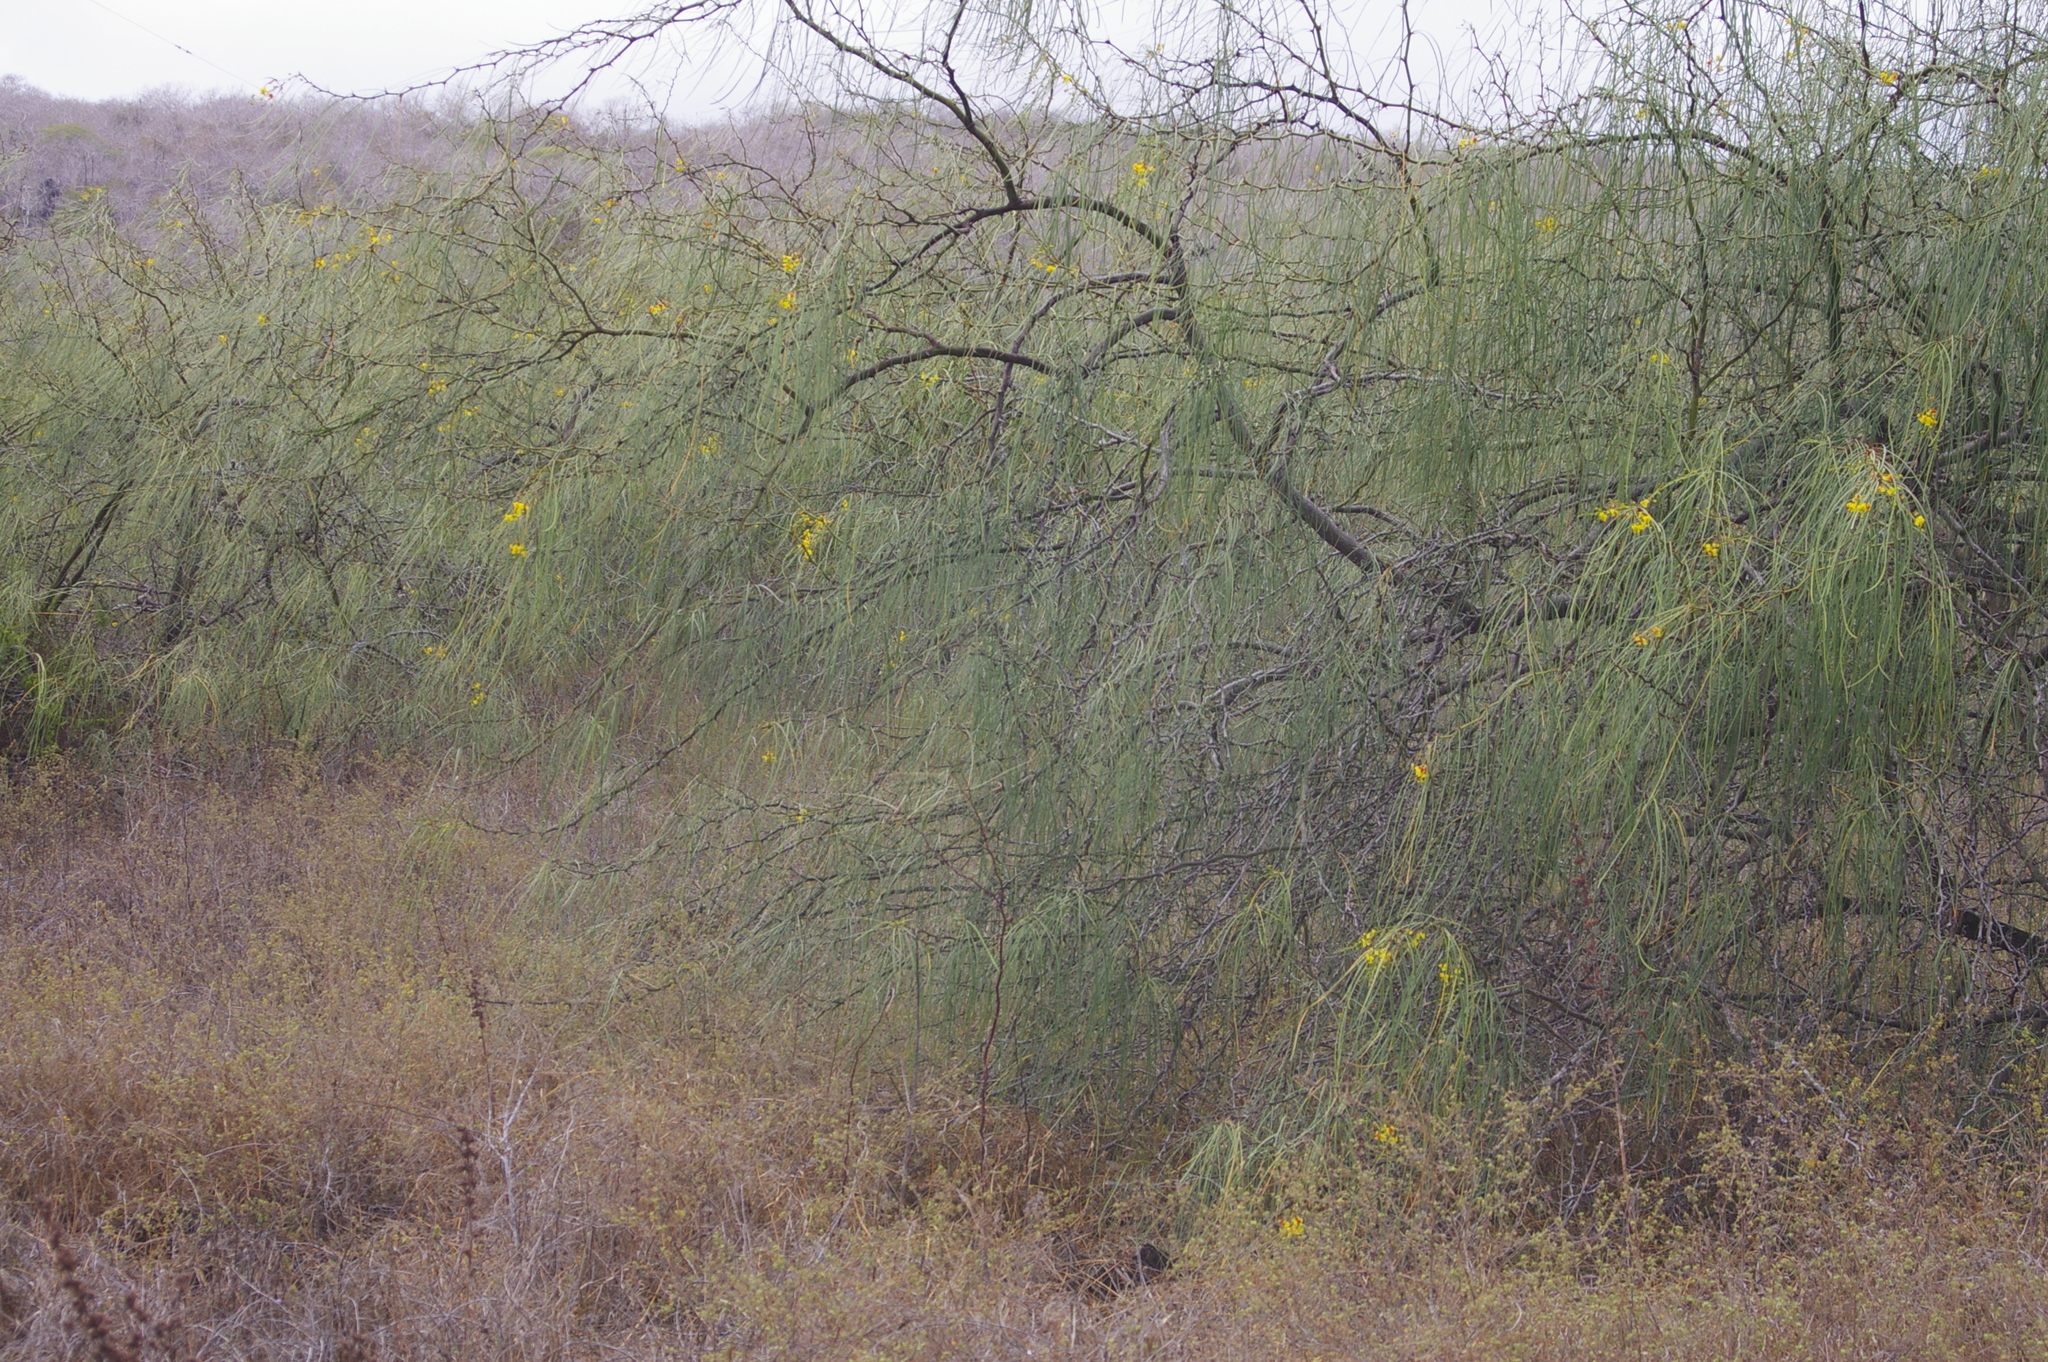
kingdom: Plantae
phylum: Tracheophyta
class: Magnoliopsida
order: Fabales
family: Fabaceae
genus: Parkinsonia
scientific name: Parkinsonia aculeata
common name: Jerusalem thorn
